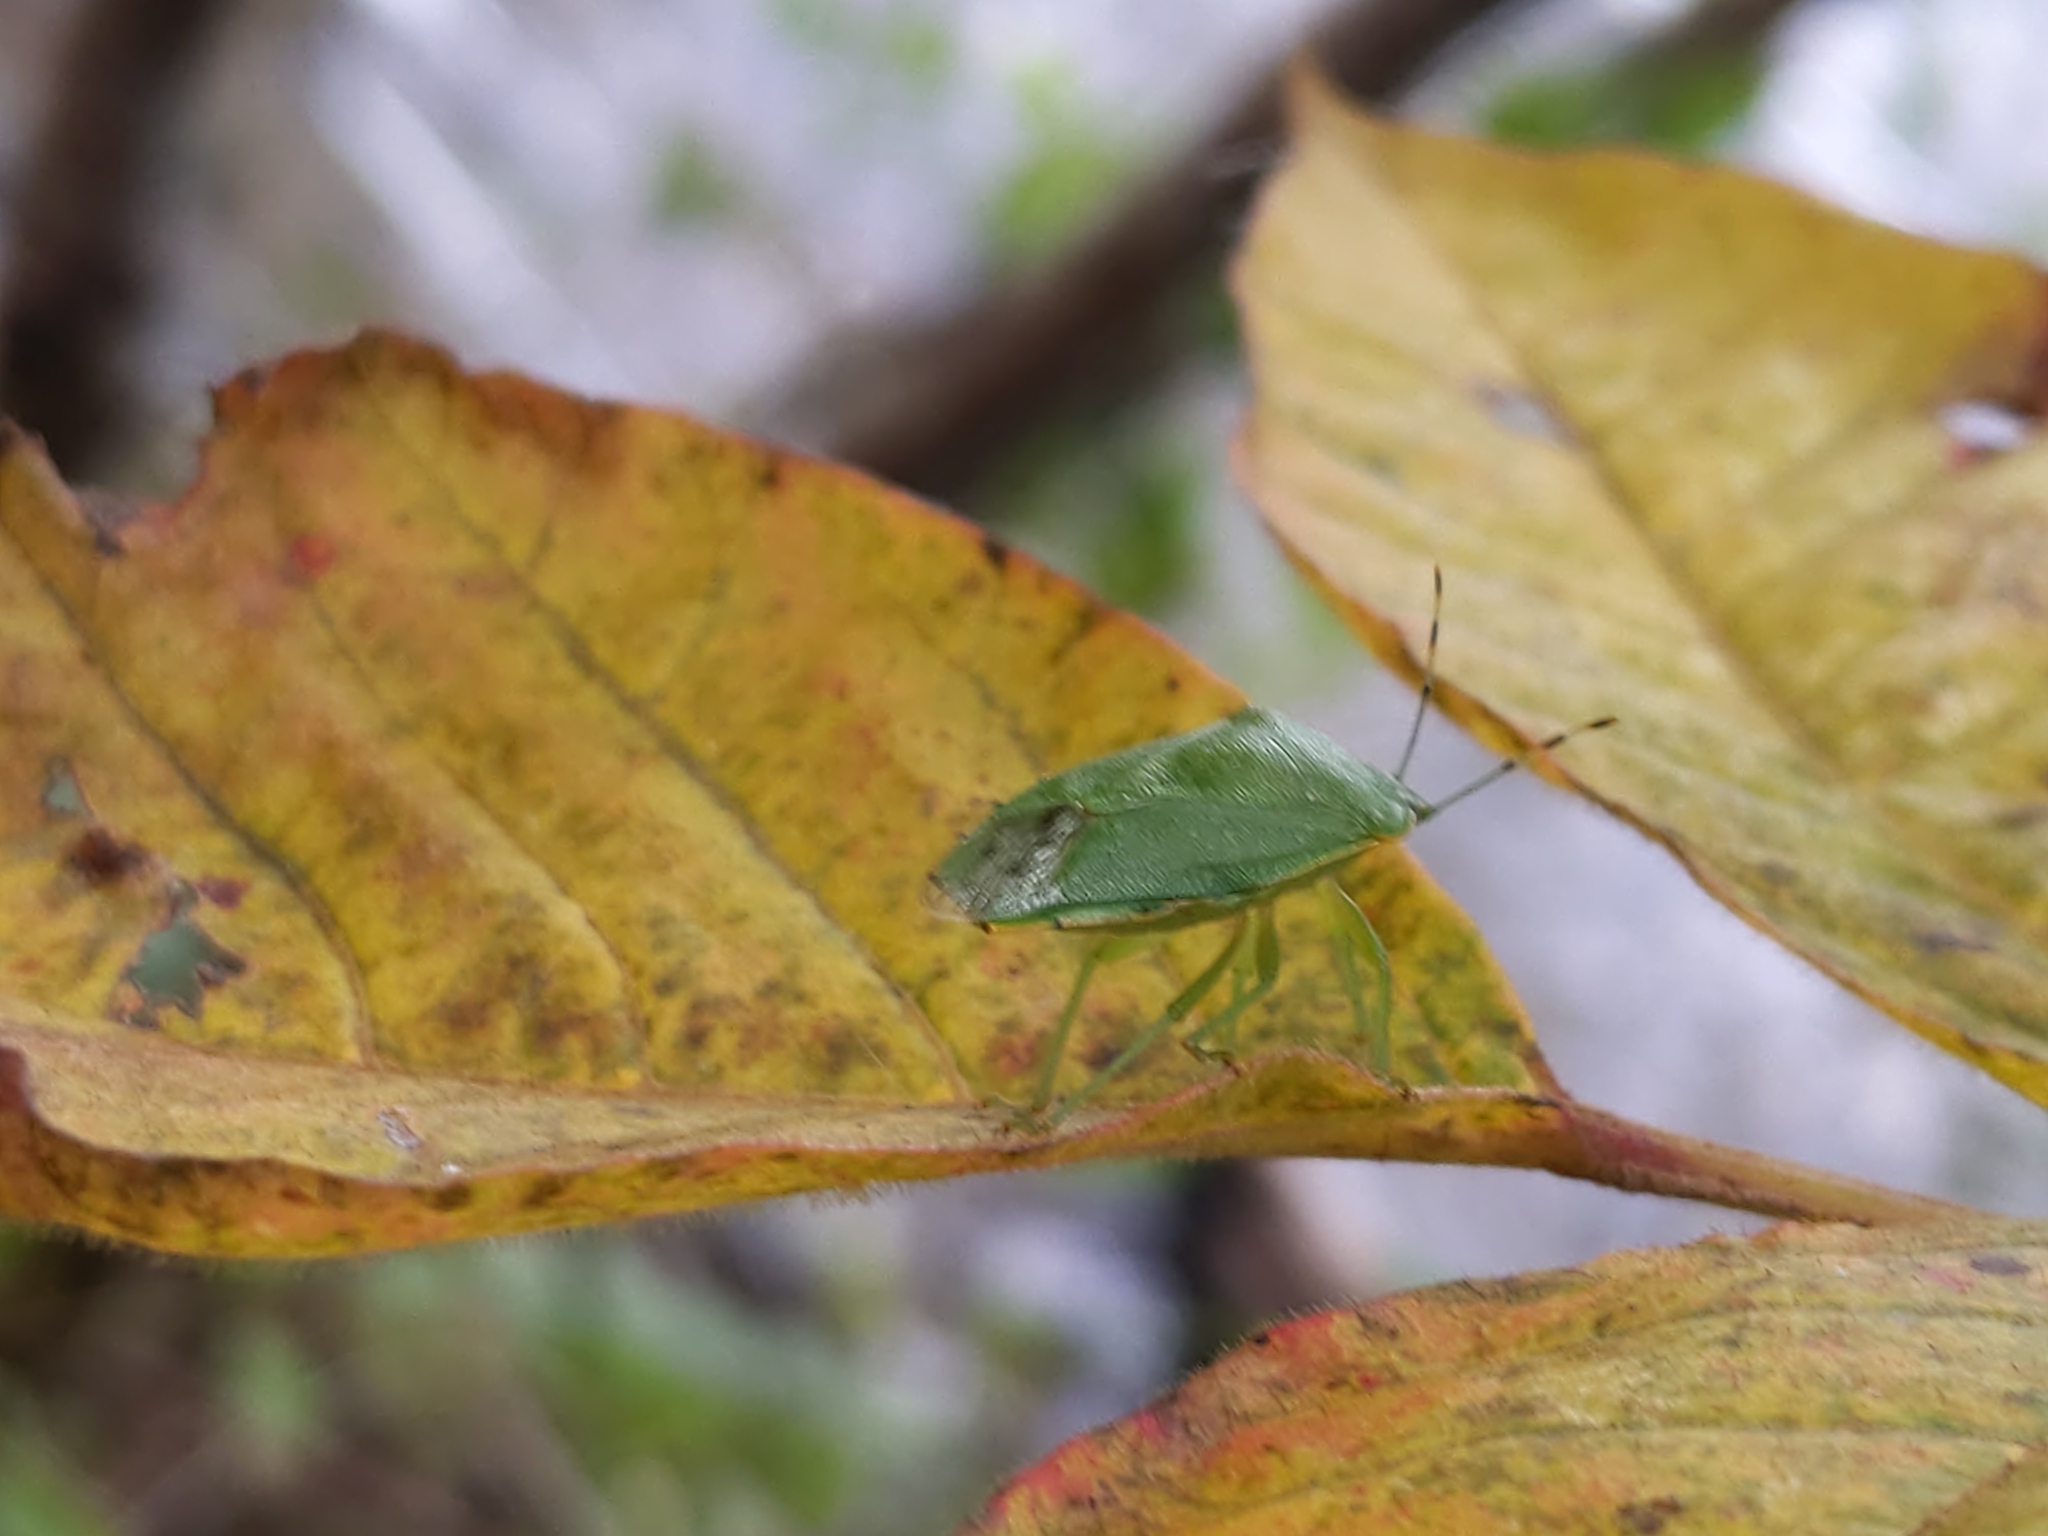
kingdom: Animalia
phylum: Arthropoda
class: Insecta
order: Hemiptera
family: Pentatomidae
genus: Chinavia
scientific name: Chinavia hilaris
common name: Green stink bug
